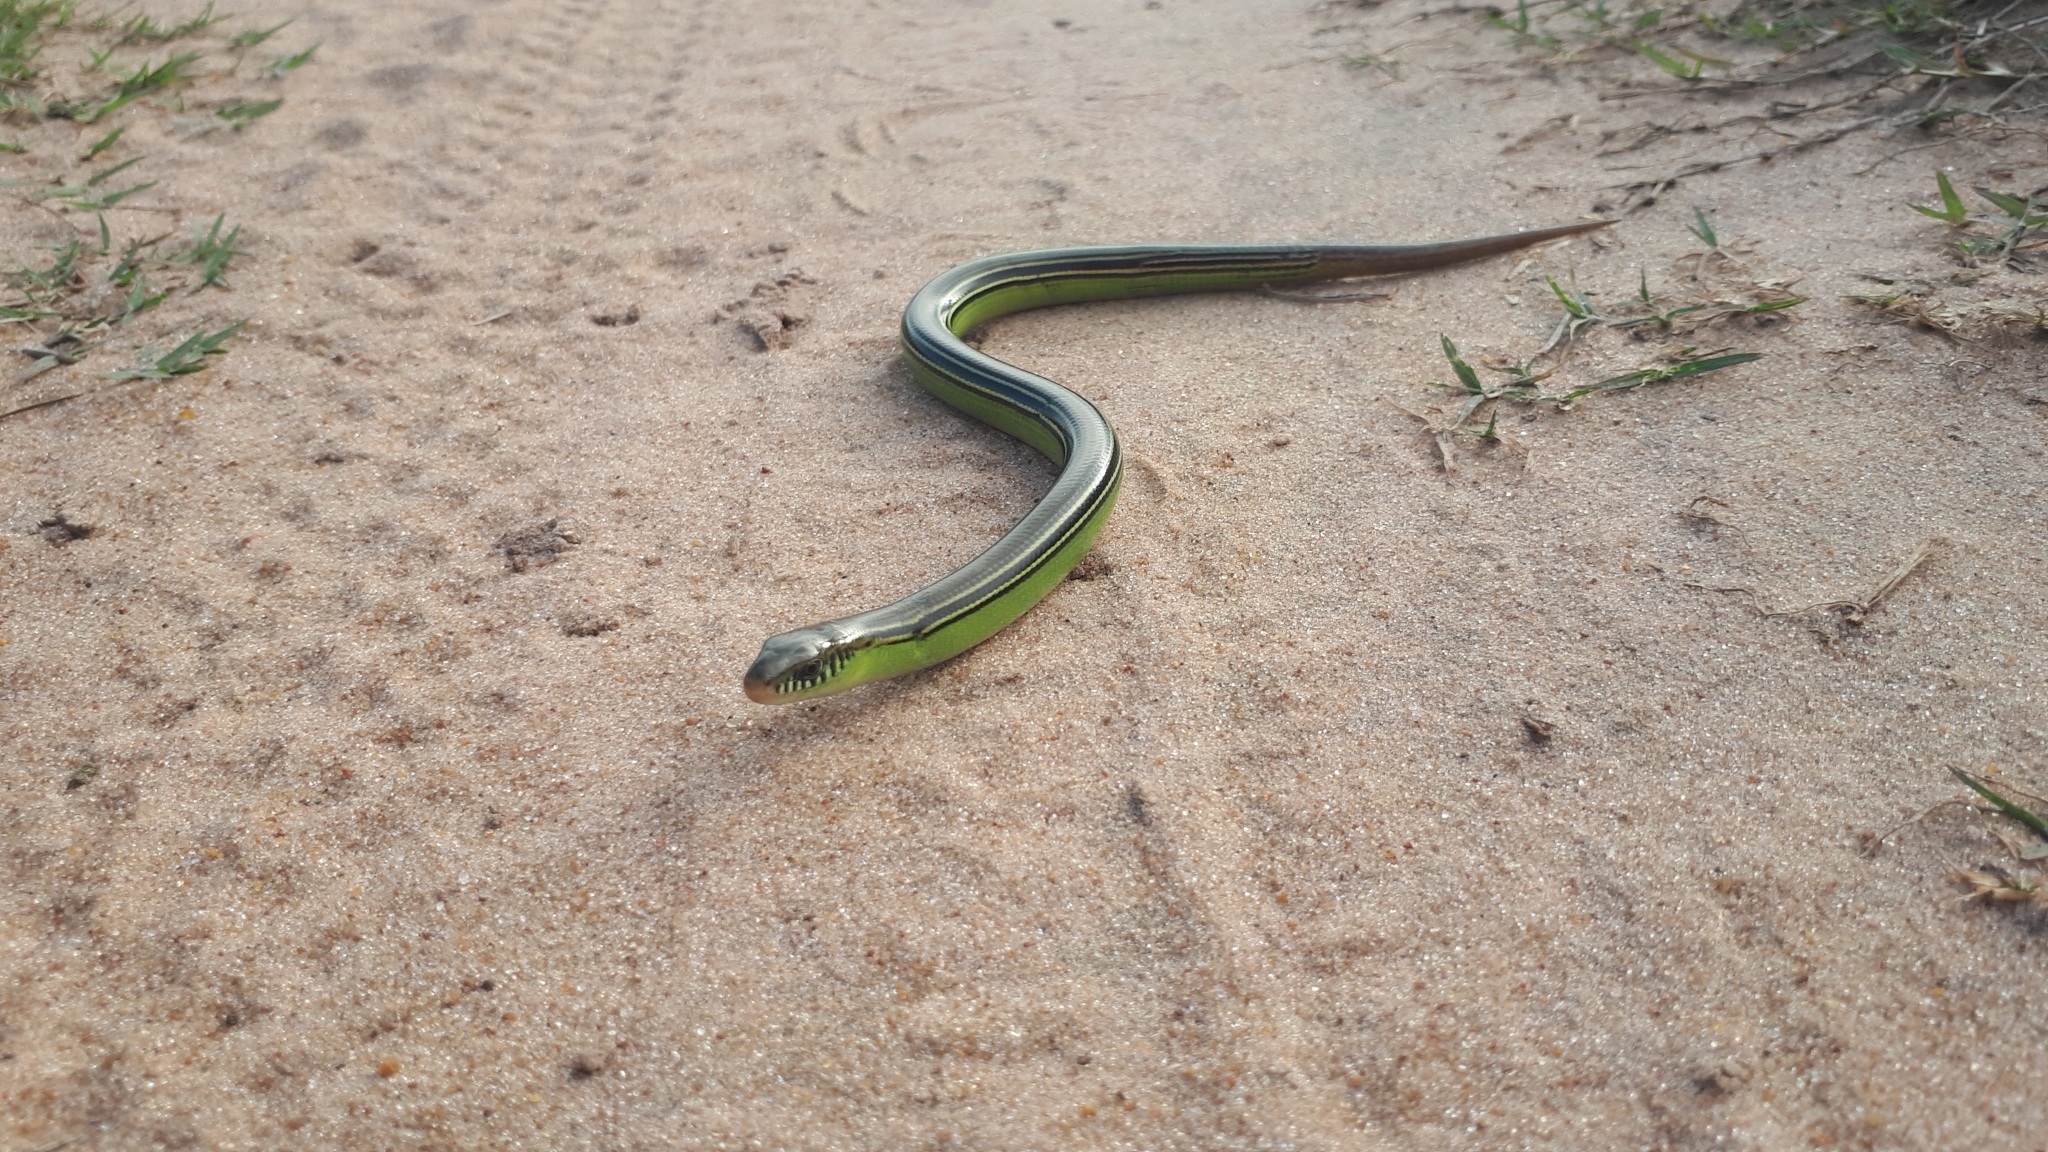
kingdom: Animalia
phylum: Chordata
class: Squamata
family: Diploglossidae
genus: Ophiodes
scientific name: Ophiodes striatus
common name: Striped worm lizard
